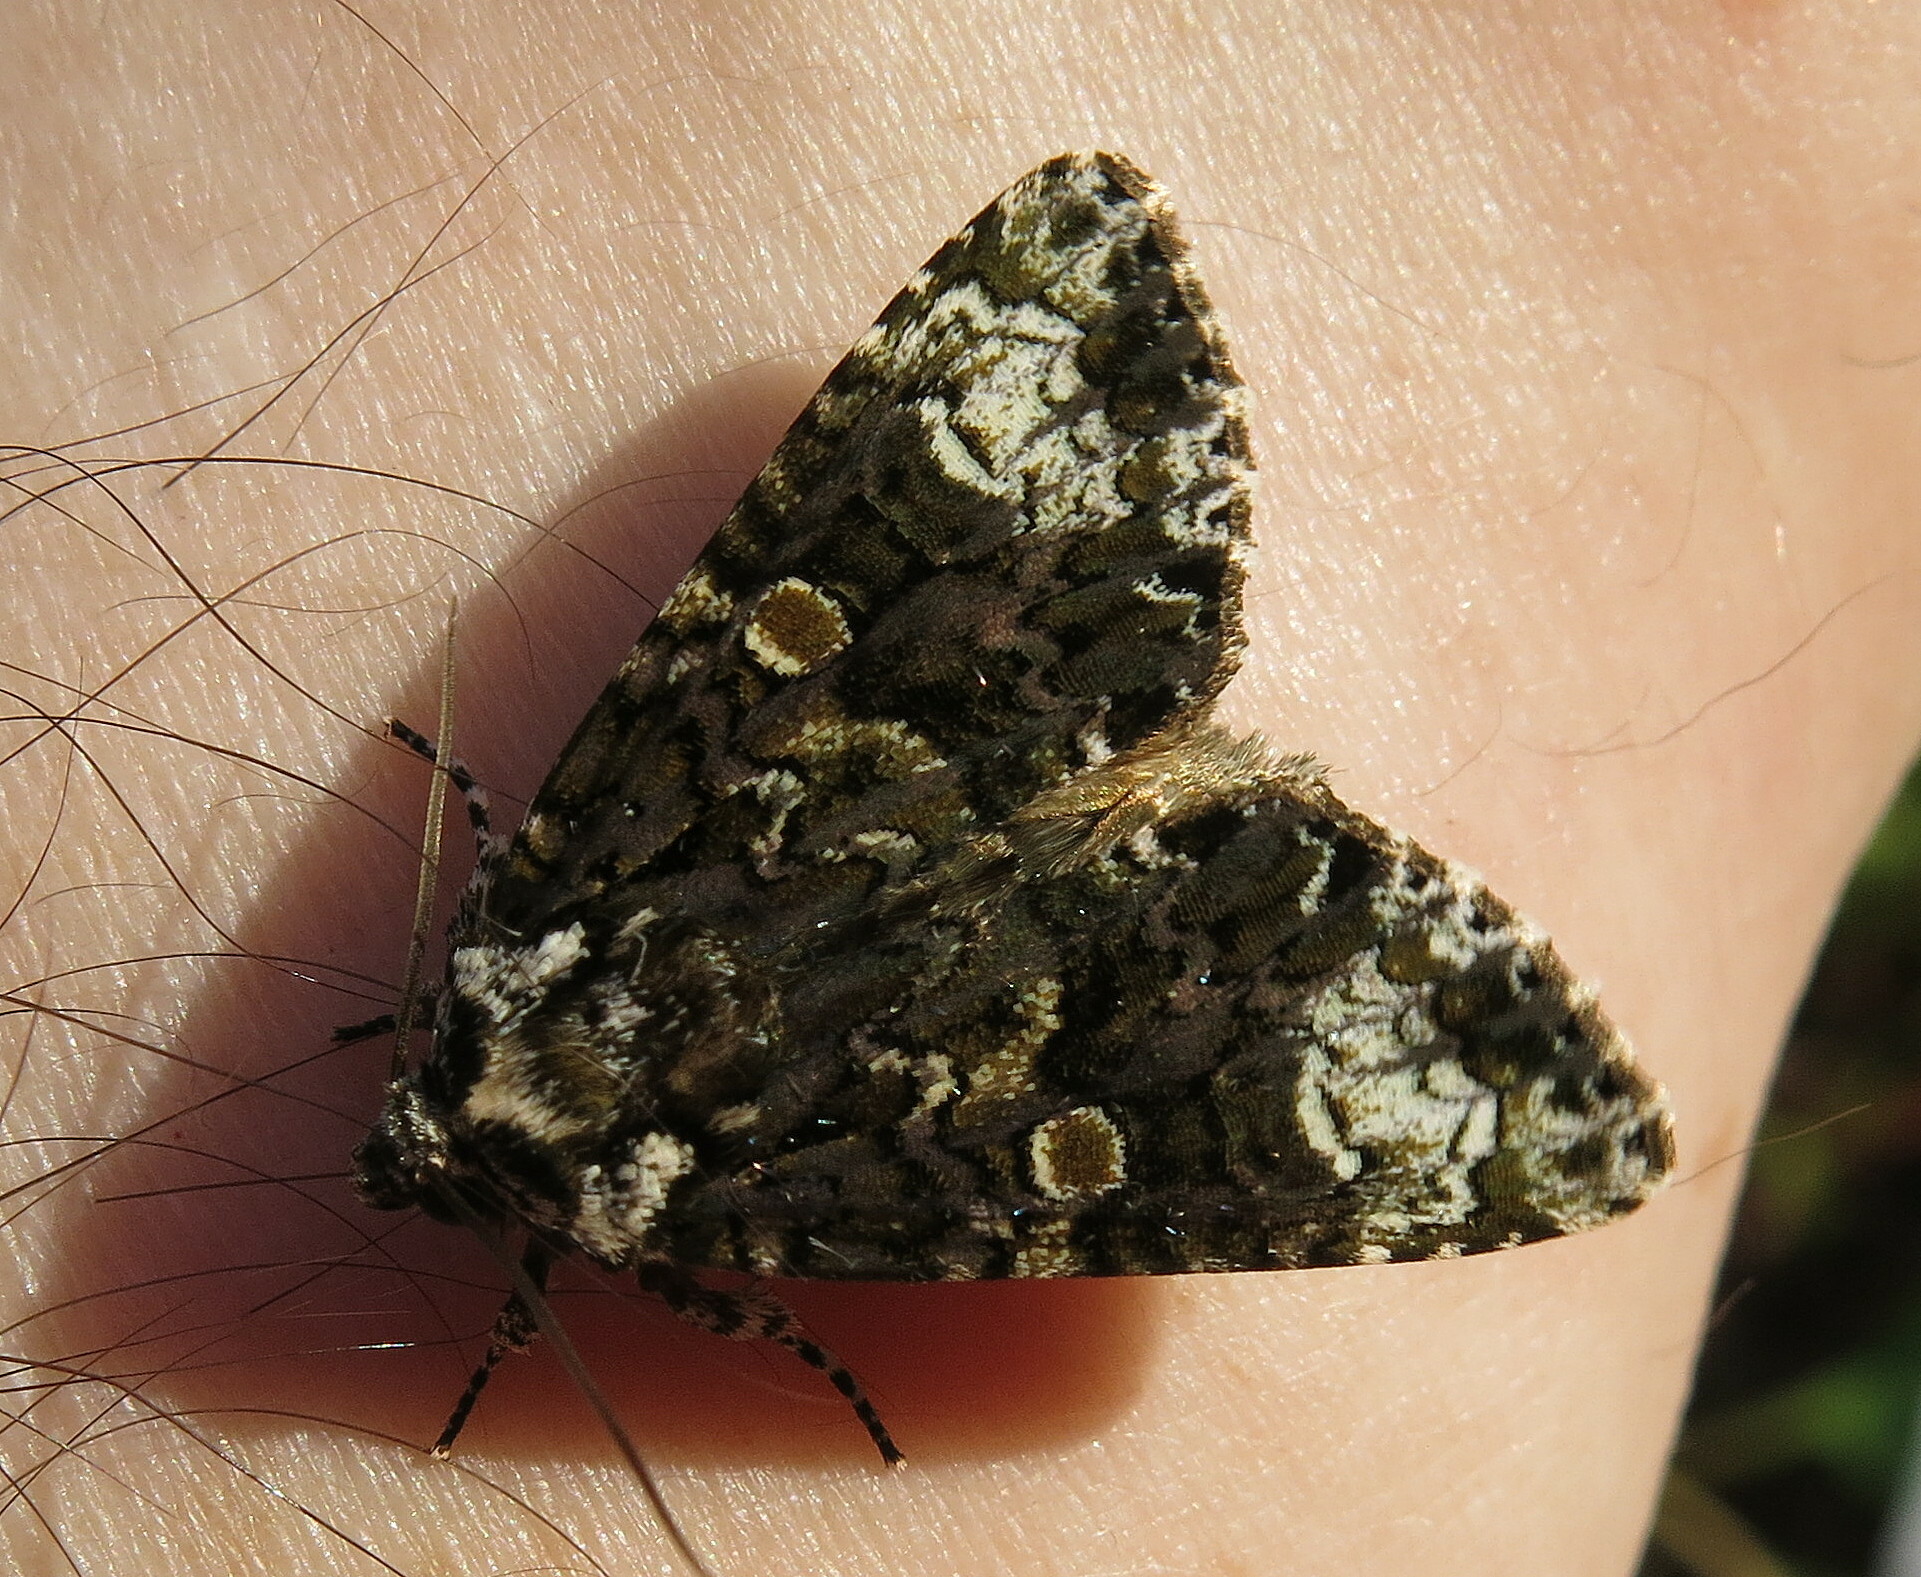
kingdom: Animalia
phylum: Arthropoda
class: Insecta
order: Lepidoptera
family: Noctuidae
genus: Craniophora
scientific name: Craniophora ligustri
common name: Coronet
